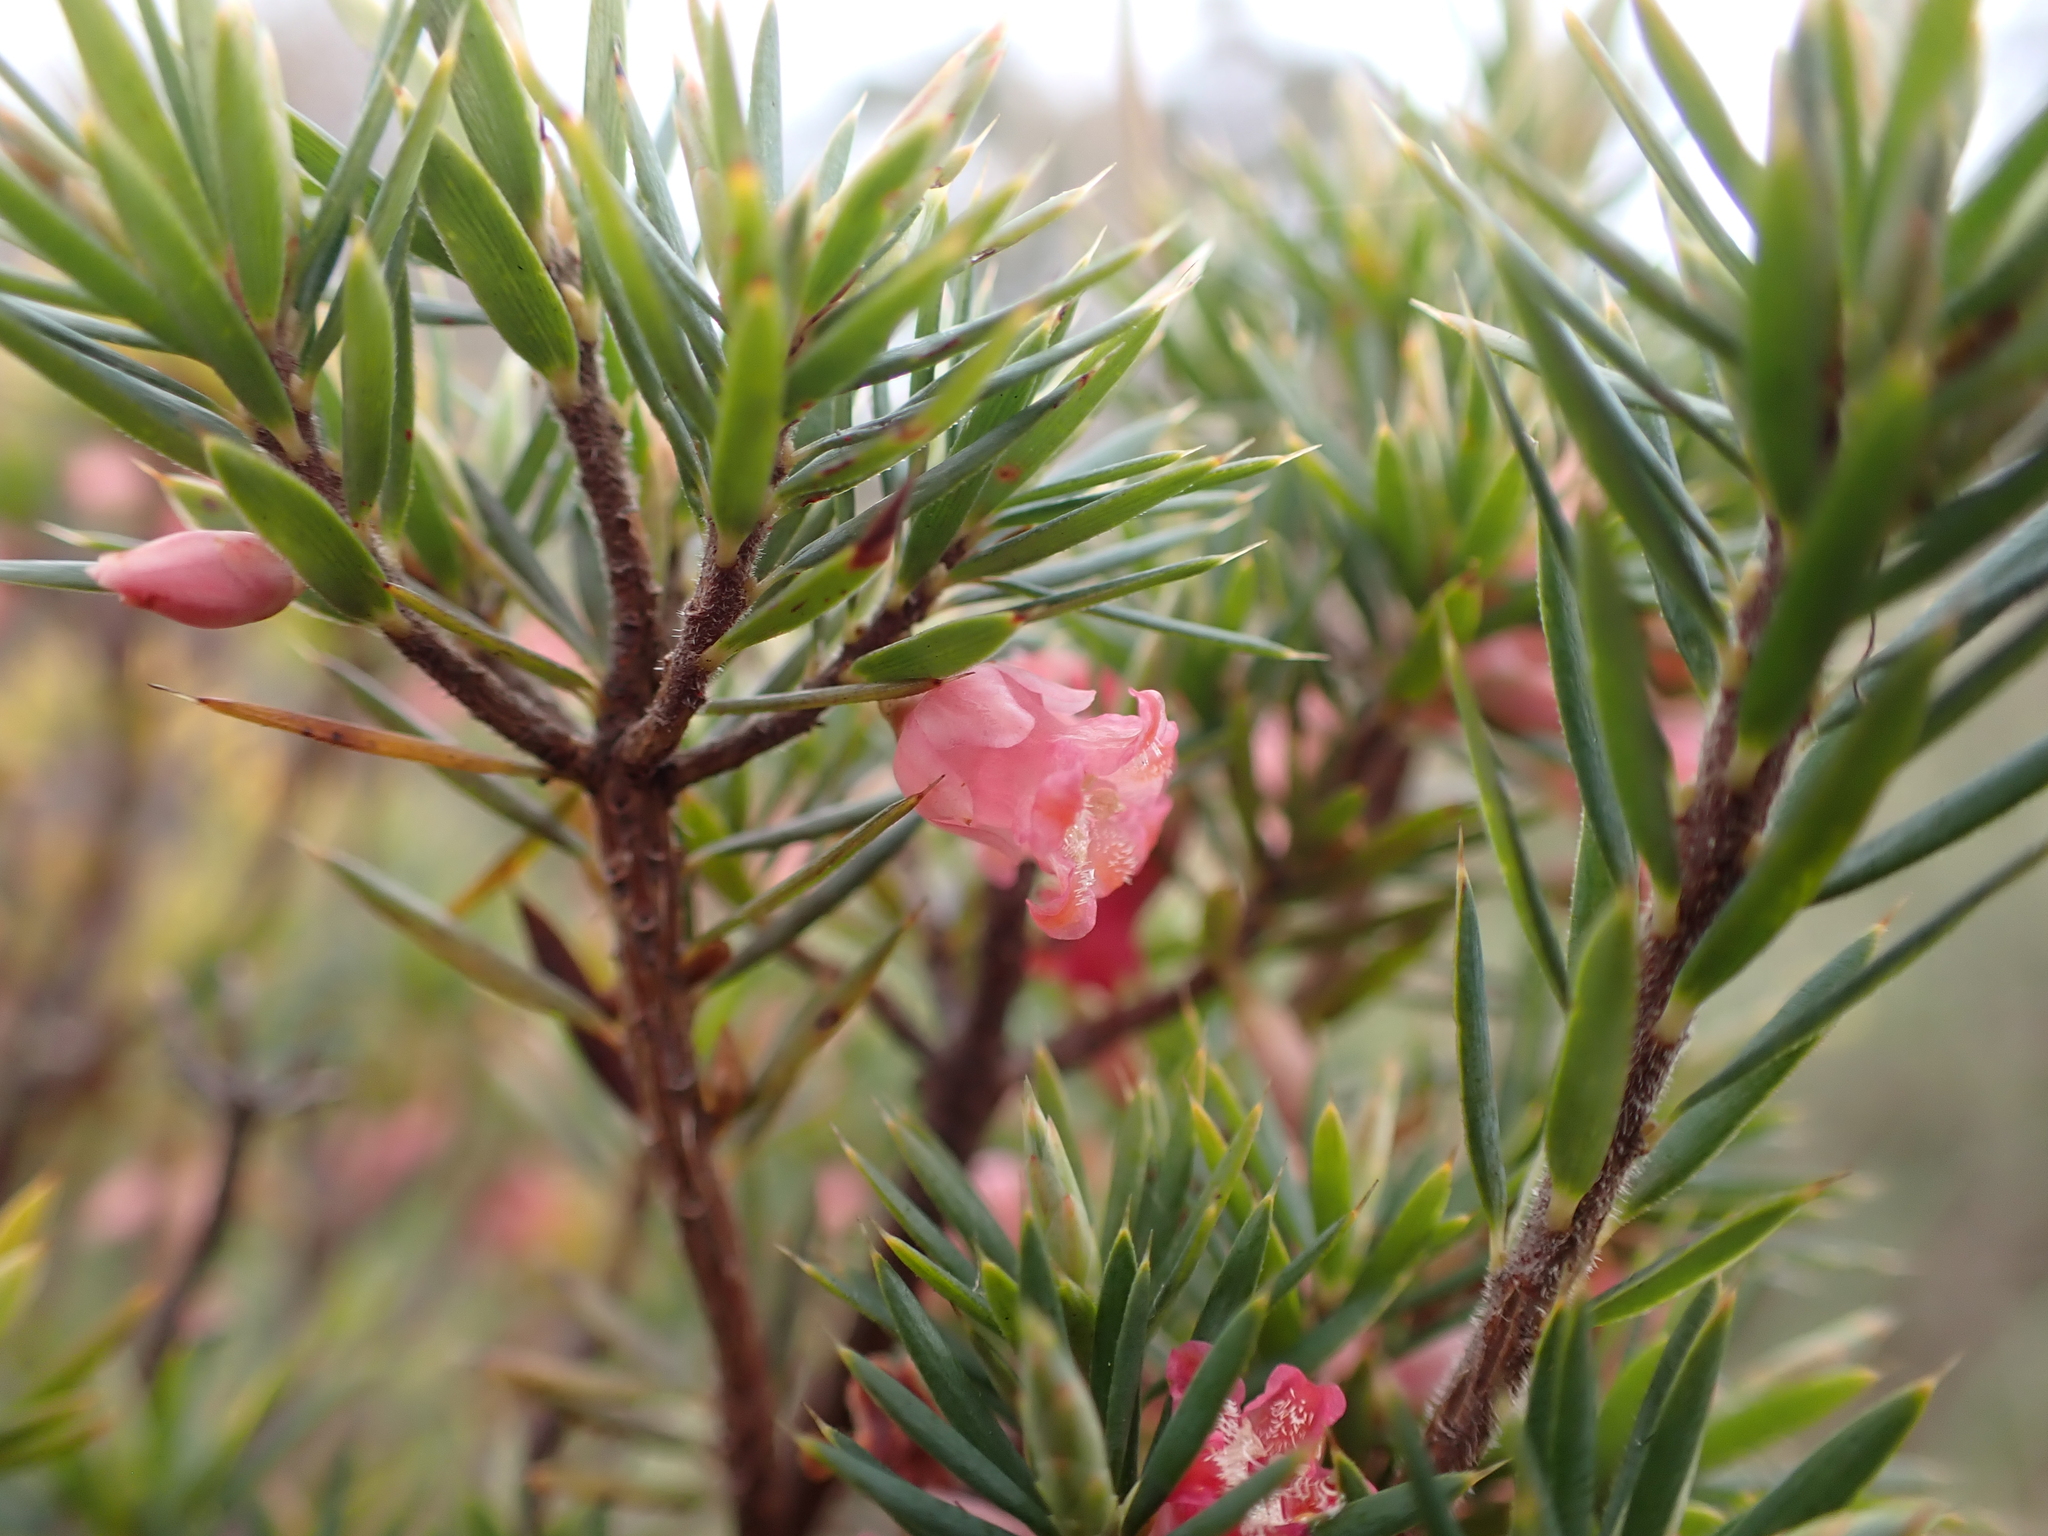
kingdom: Plantae
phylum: Tracheophyta
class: Magnoliopsida
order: Ericales
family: Ericaceae
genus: Brachyloma
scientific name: Brachyloma ericoides
